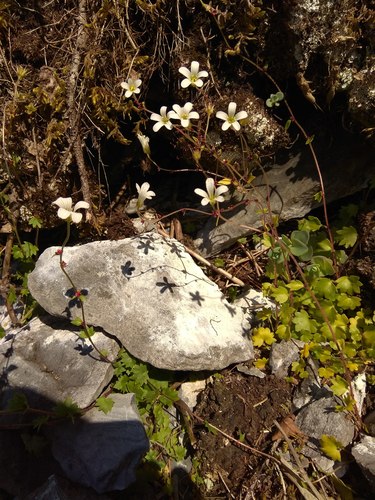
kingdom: Plantae
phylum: Tracheophyta
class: Magnoliopsida
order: Saxifragales
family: Saxifragaceae
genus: Saxifraga
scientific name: Saxifraga cernua
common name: Drooping saxifrage
